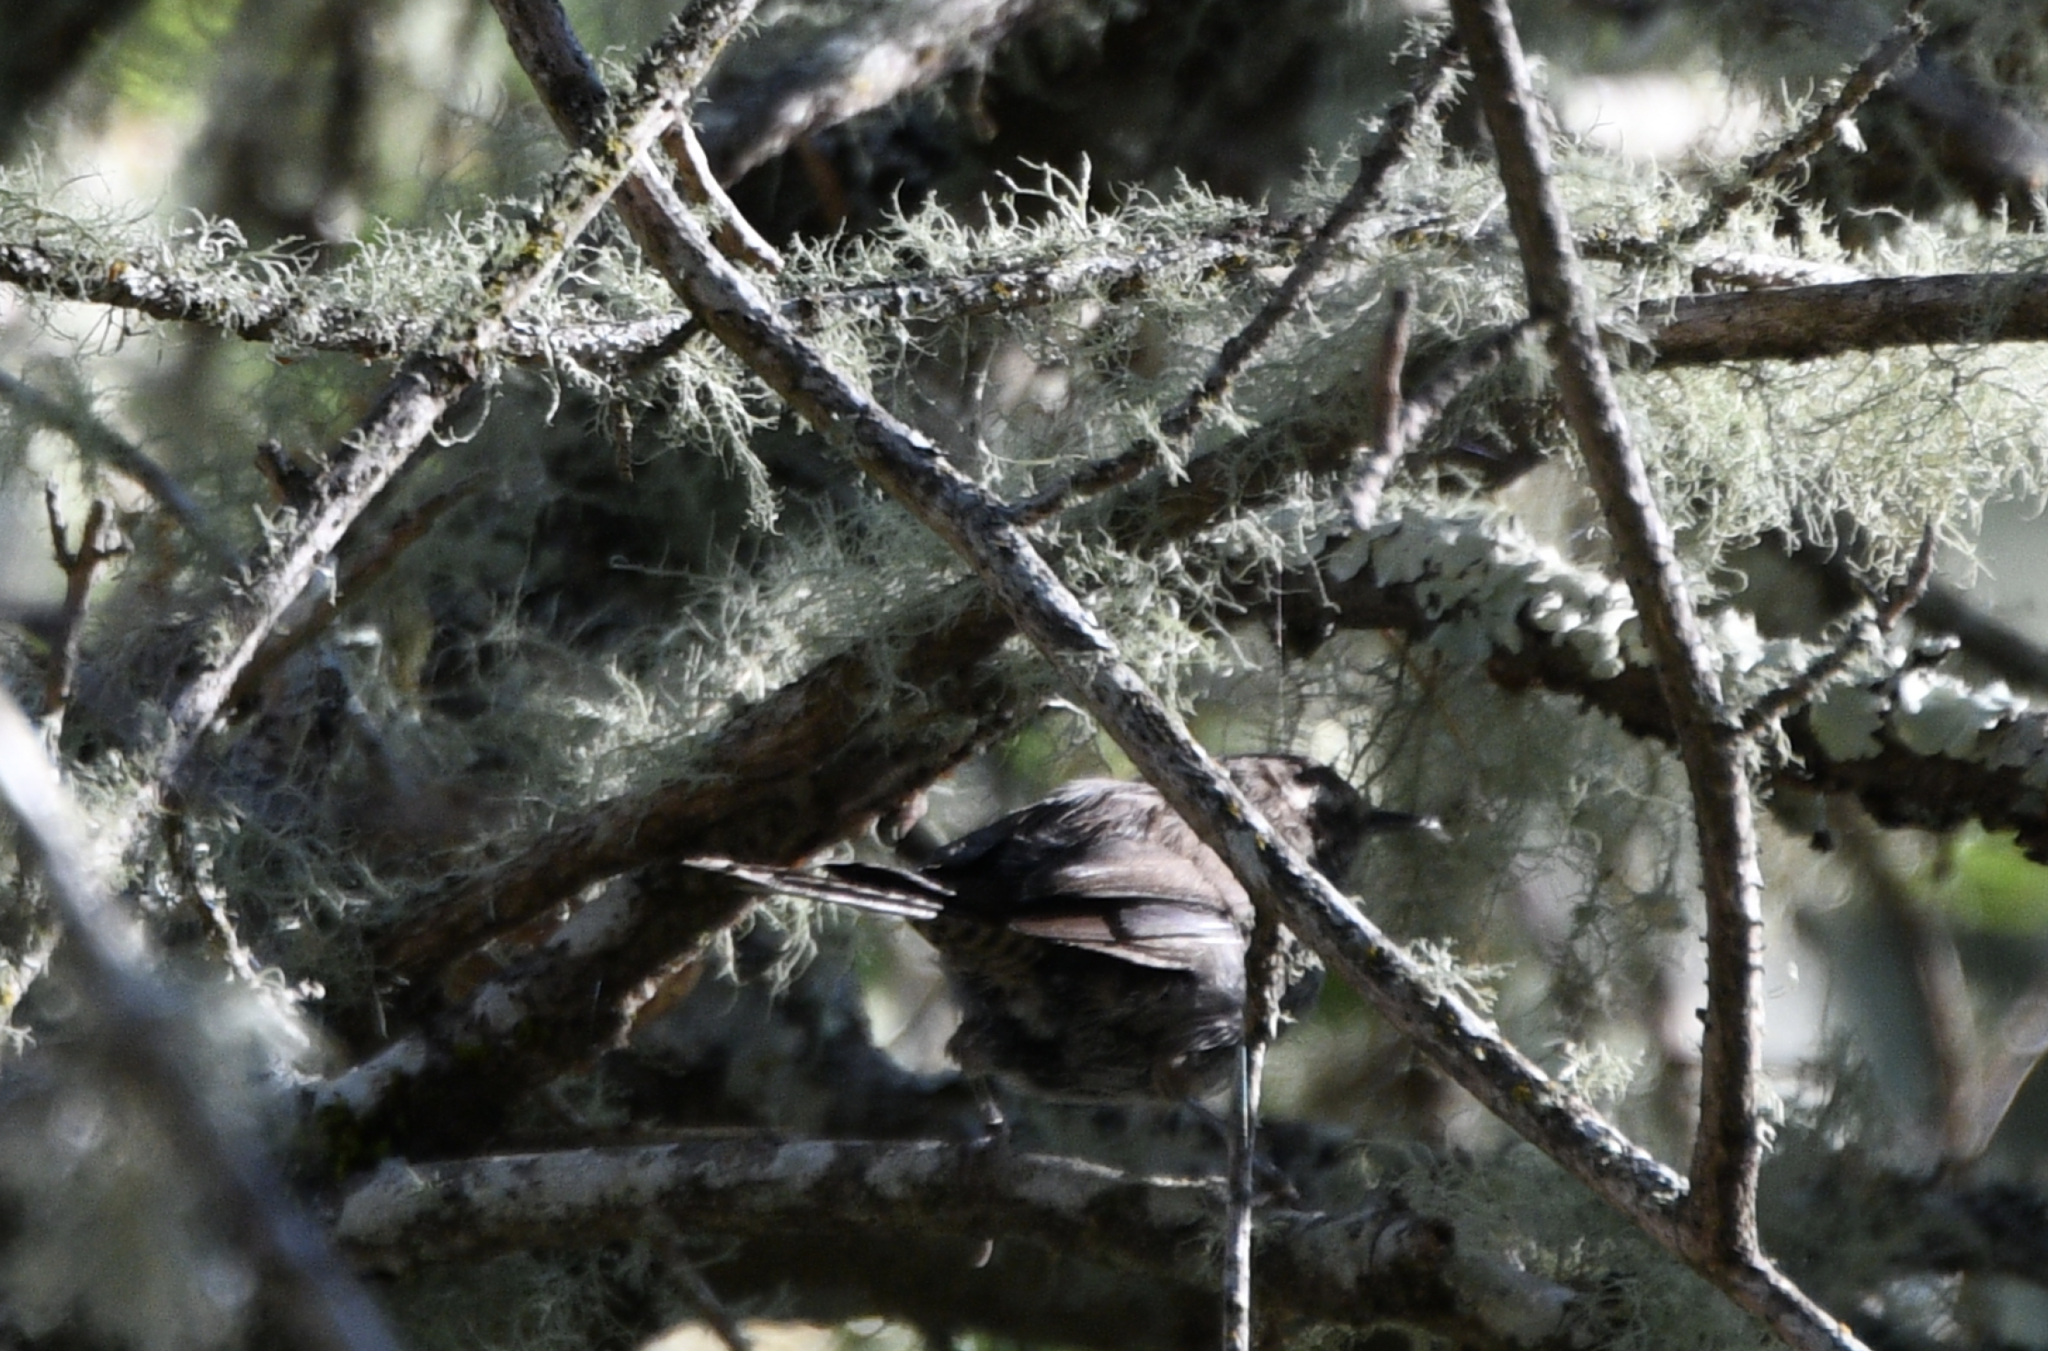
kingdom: Animalia
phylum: Chordata
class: Aves
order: Passeriformes
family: Troglodytidae
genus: Thryomanes
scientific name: Thryomanes bewickii
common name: Bewick's wren
